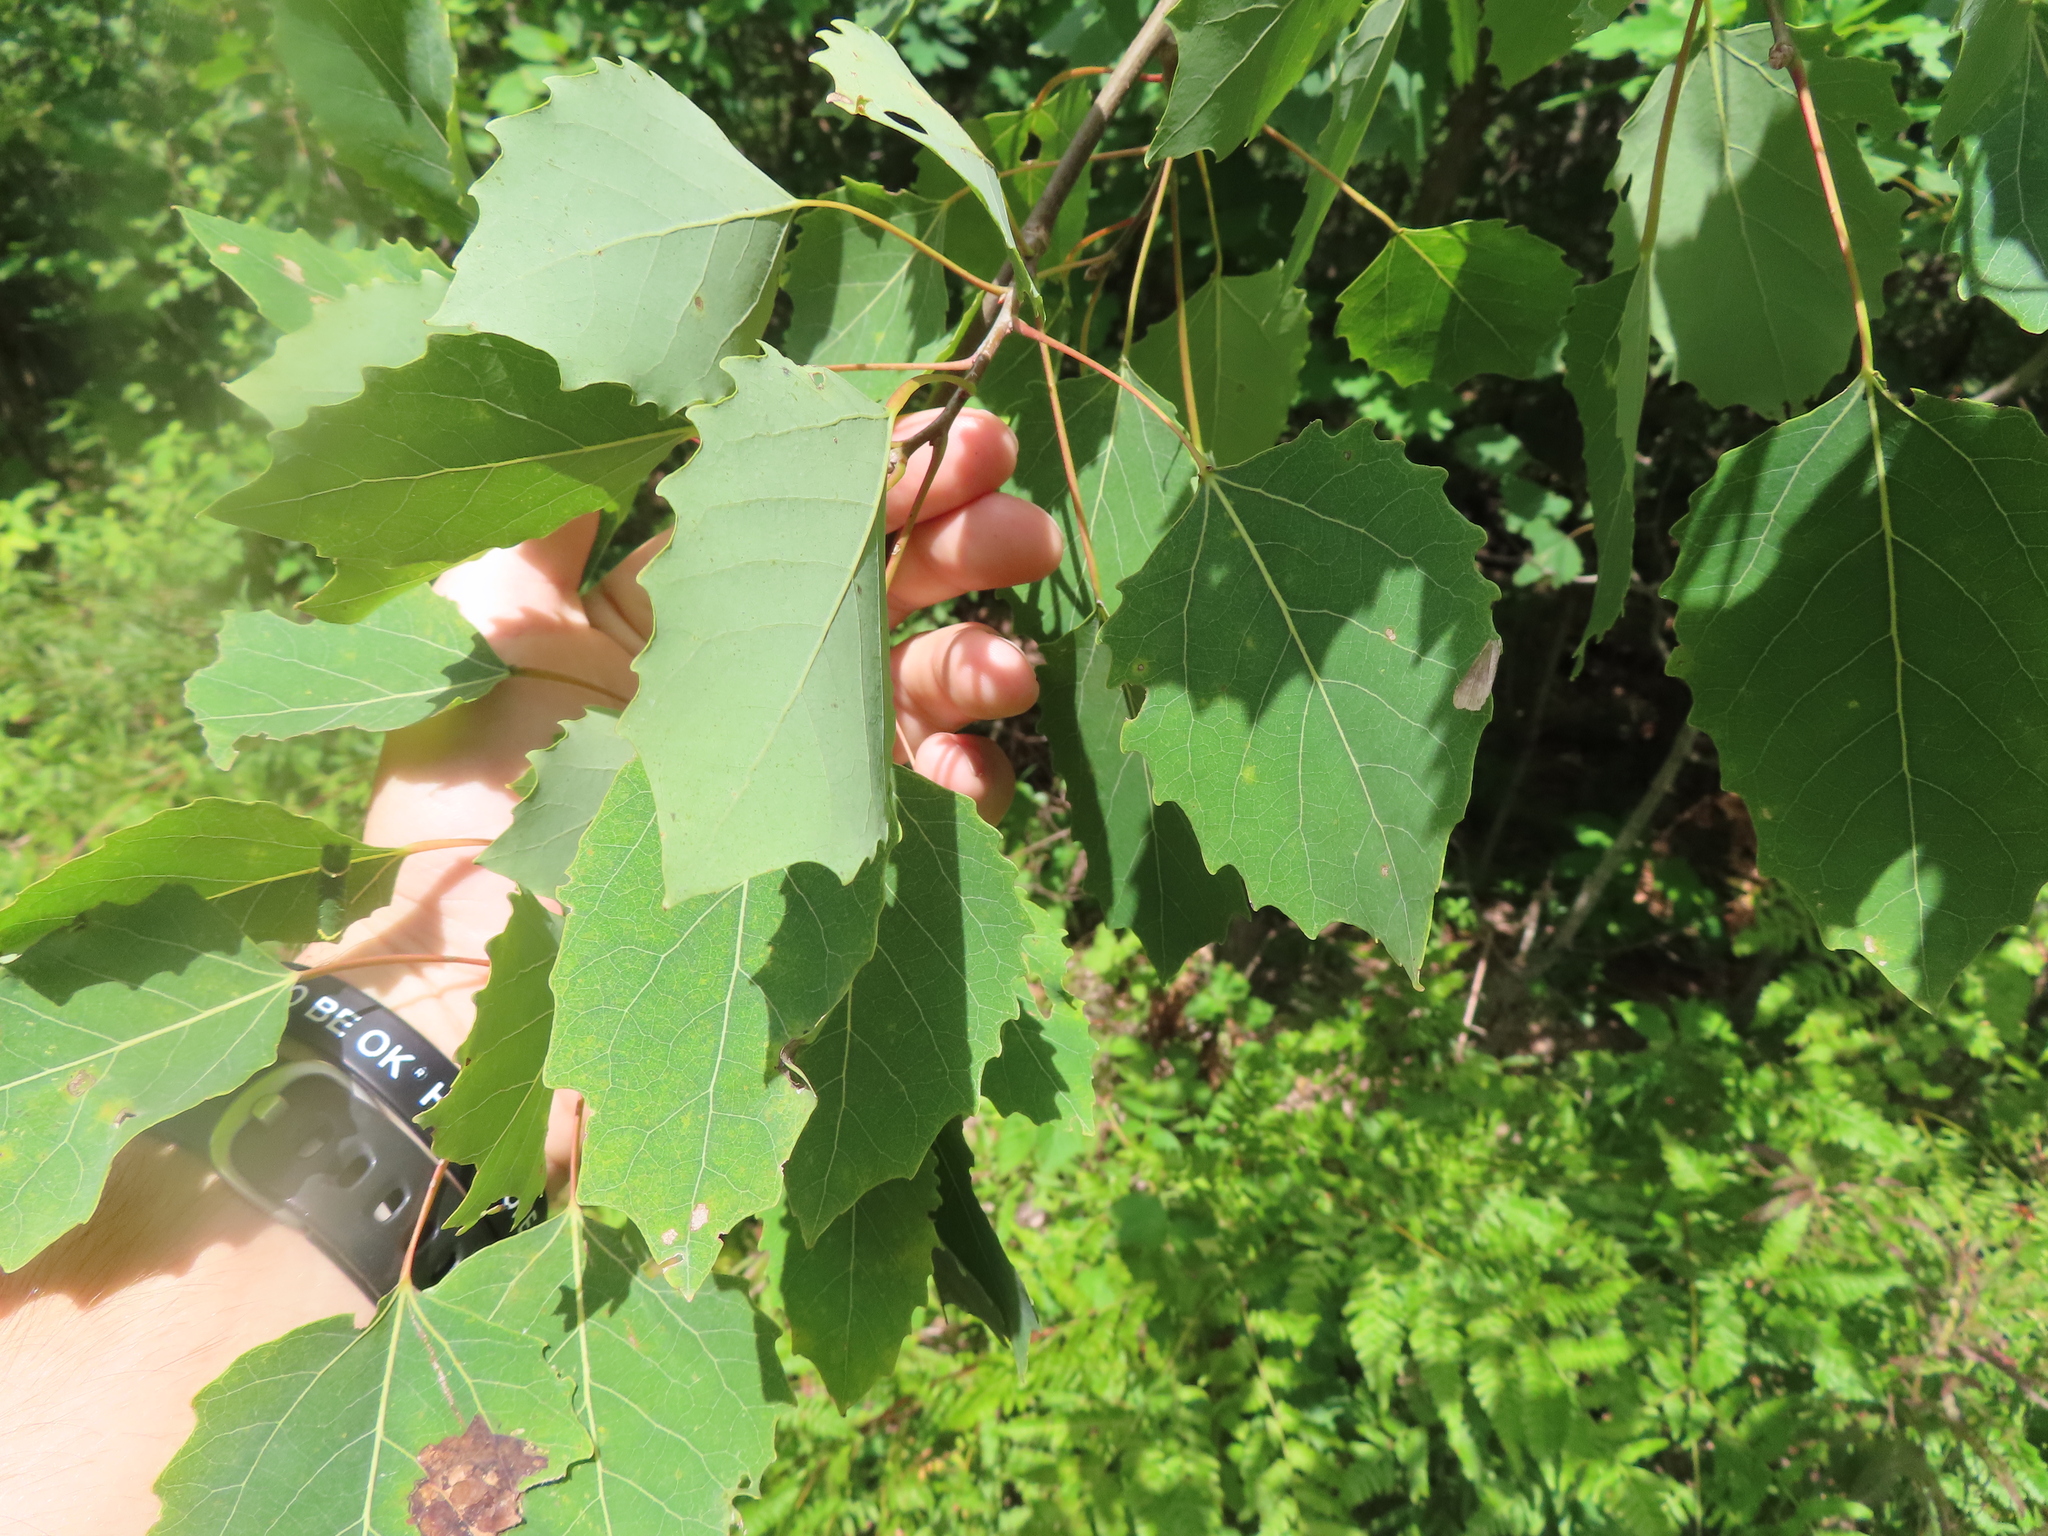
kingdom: Plantae
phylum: Tracheophyta
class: Magnoliopsida
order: Malpighiales
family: Salicaceae
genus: Populus
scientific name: Populus grandidentata
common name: Bigtooth aspen
